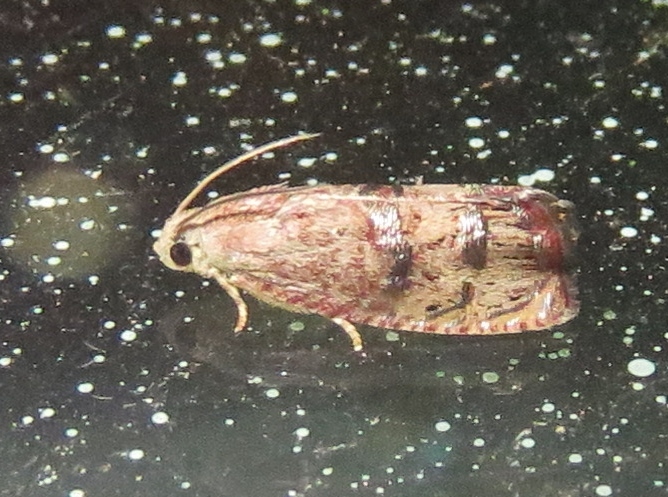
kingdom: Animalia
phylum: Arthropoda
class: Insecta
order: Lepidoptera
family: Tortricidae
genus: Cydia
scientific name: Cydia latiferreana
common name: Filbertworm moth
